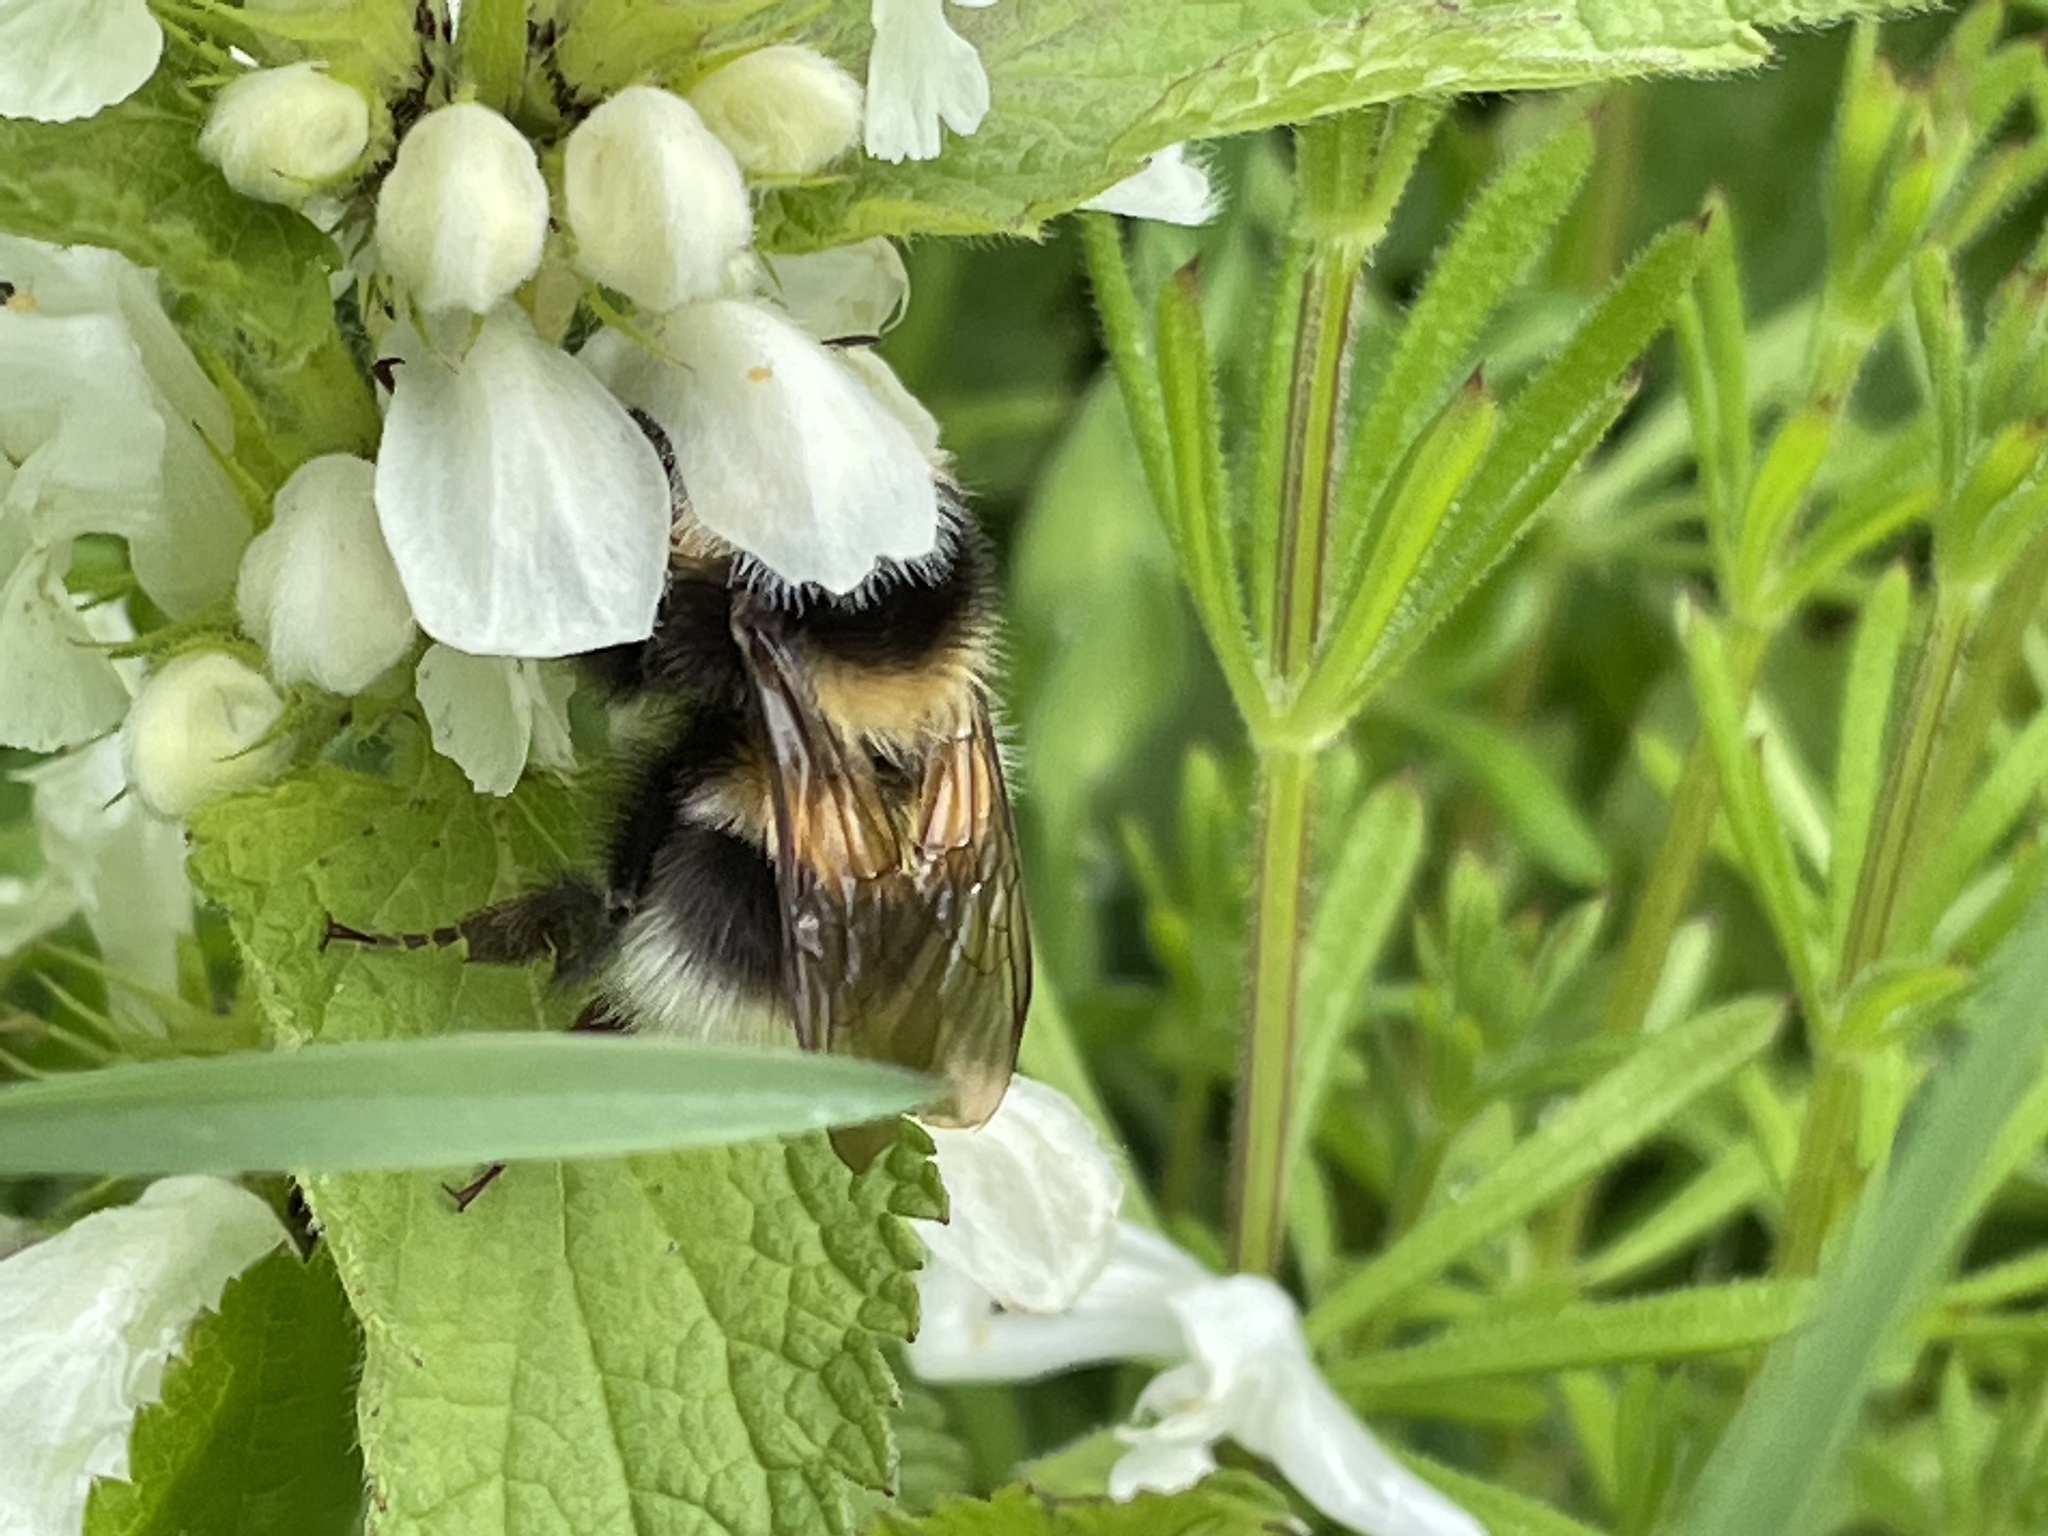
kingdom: Animalia
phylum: Arthropoda
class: Insecta
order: Hymenoptera
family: Apidae
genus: Bombus
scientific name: Bombus hortorum
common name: Garden bumblebee
